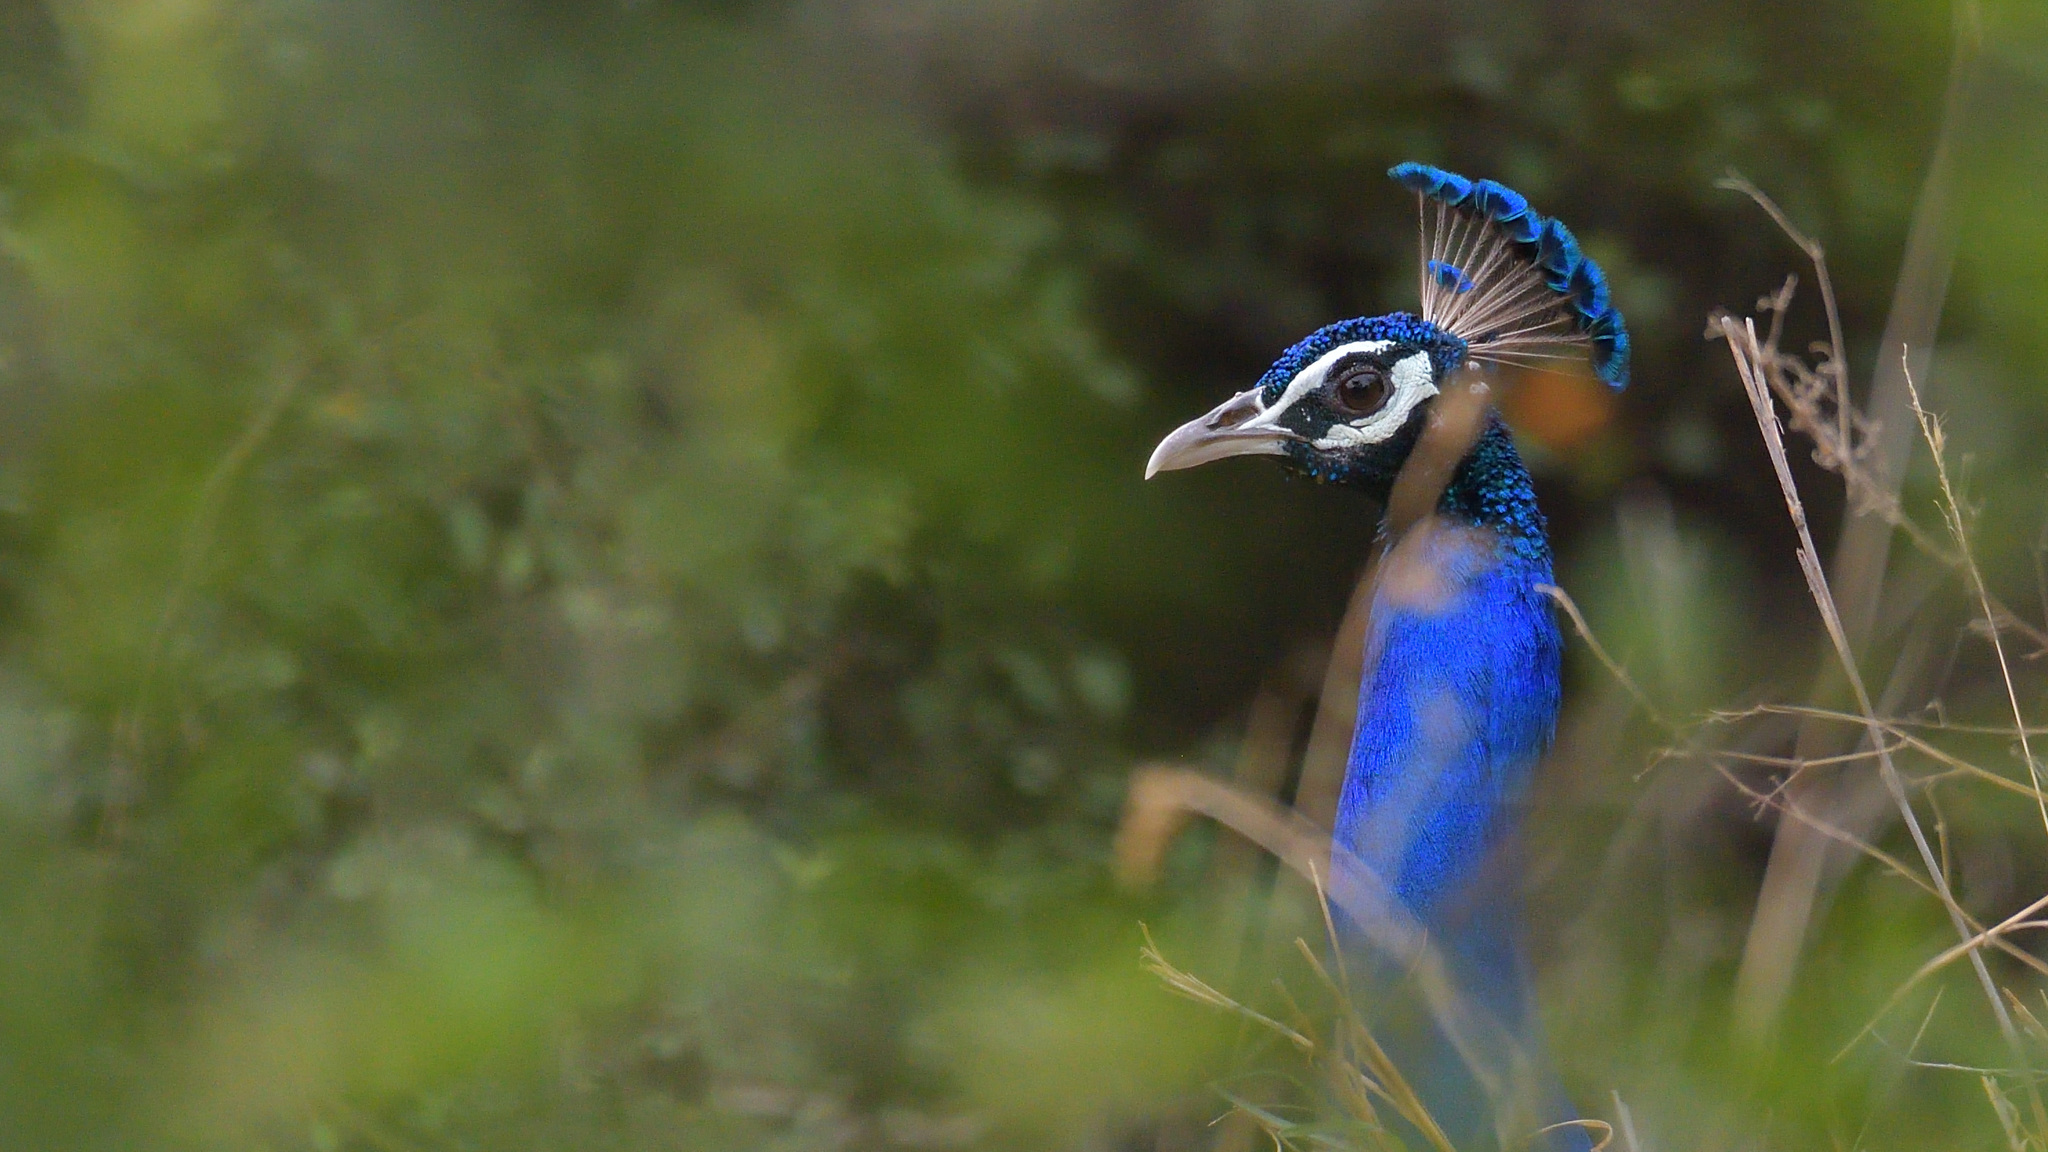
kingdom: Animalia
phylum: Chordata
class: Aves
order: Galliformes
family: Phasianidae
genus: Pavo
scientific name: Pavo cristatus
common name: Indian peafowl
